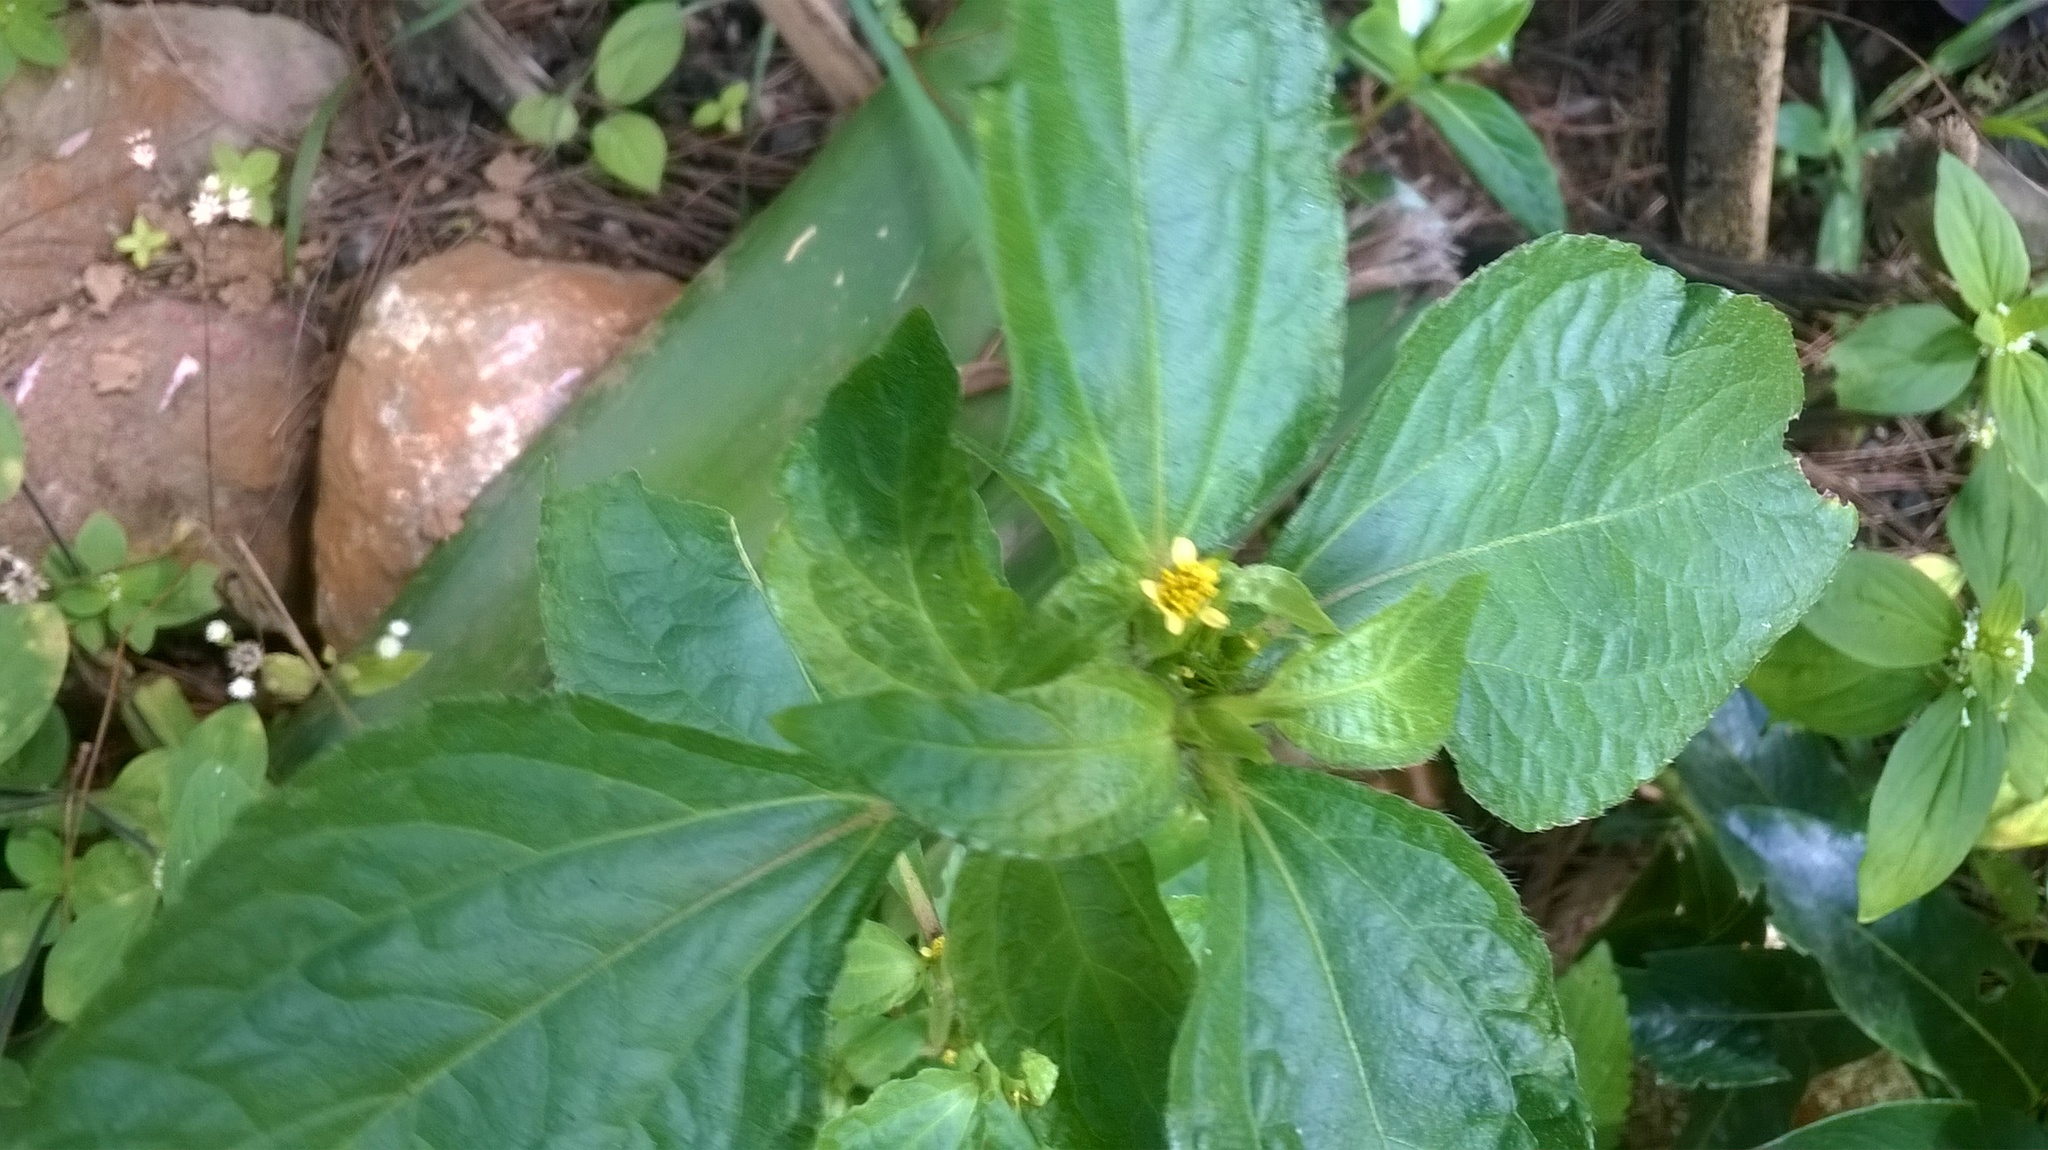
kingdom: Plantae
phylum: Tracheophyta
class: Magnoliopsida
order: Asterales
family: Asteraceae
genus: Synedrella
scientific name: Synedrella nodiflora
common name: Nodeweed
